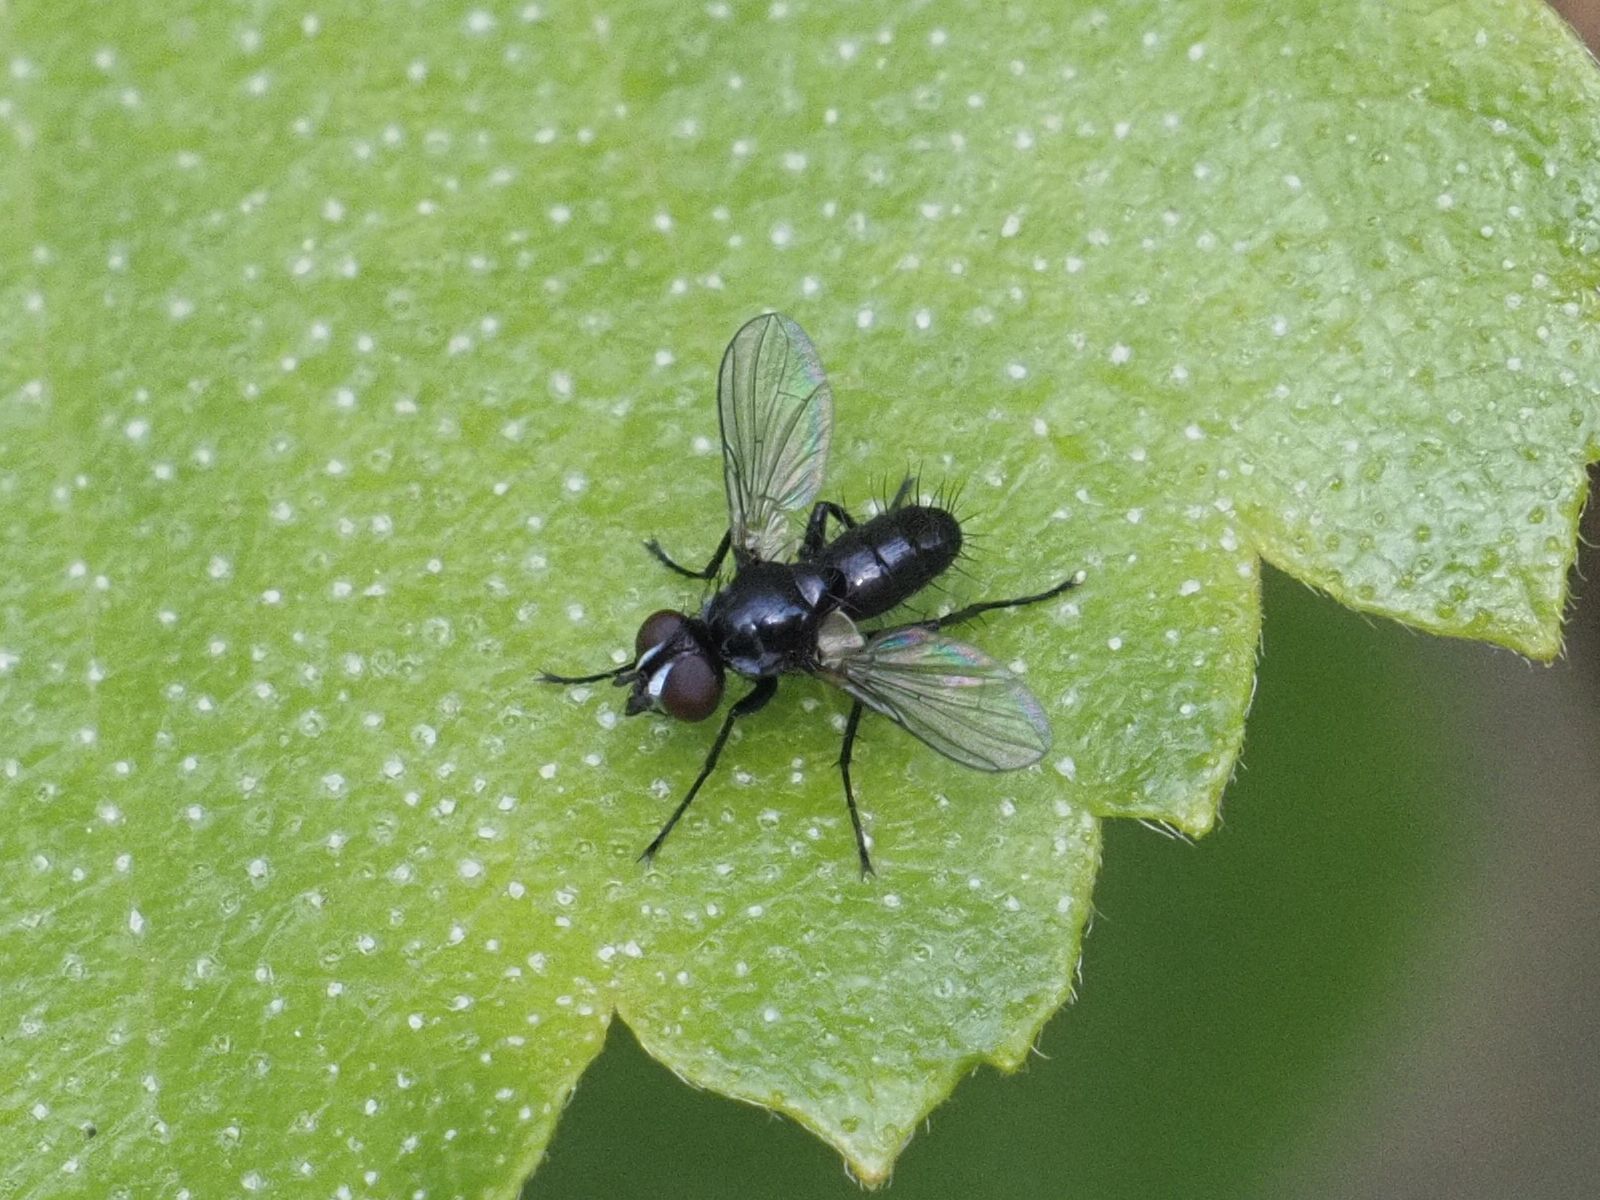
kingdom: Animalia
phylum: Arthropoda
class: Insecta
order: Diptera
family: Tachinidae
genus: Phania
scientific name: Phania funesta
